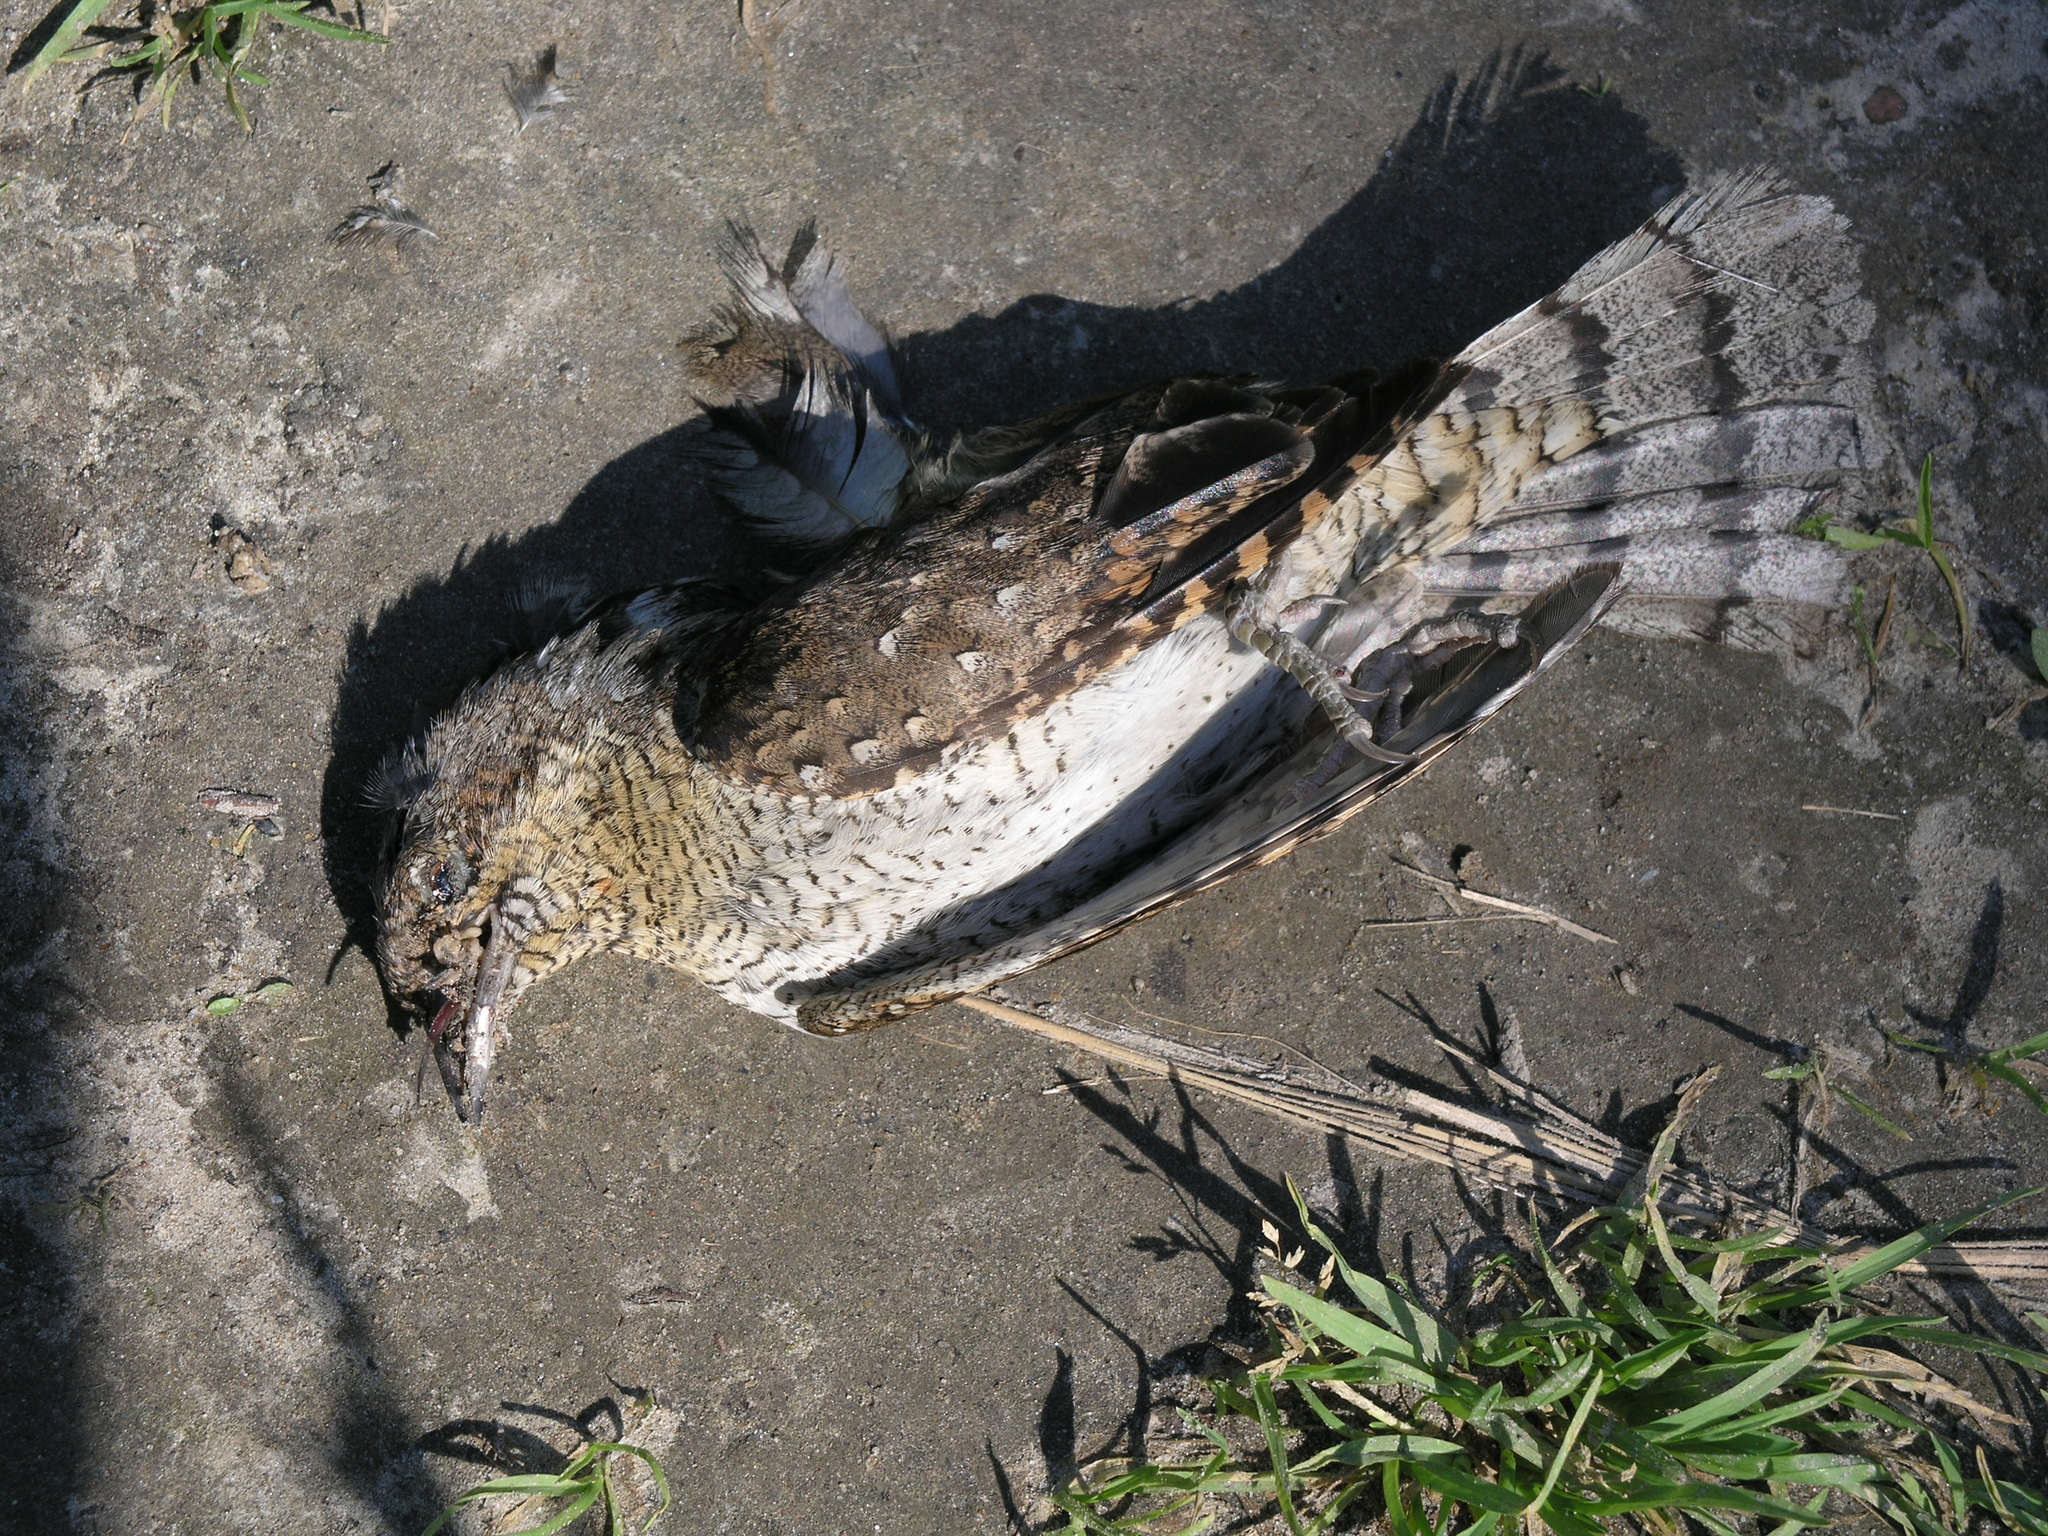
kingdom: Animalia
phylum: Chordata
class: Aves
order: Piciformes
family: Picidae
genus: Jynx
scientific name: Jynx torquilla
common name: Eurasian wryneck
